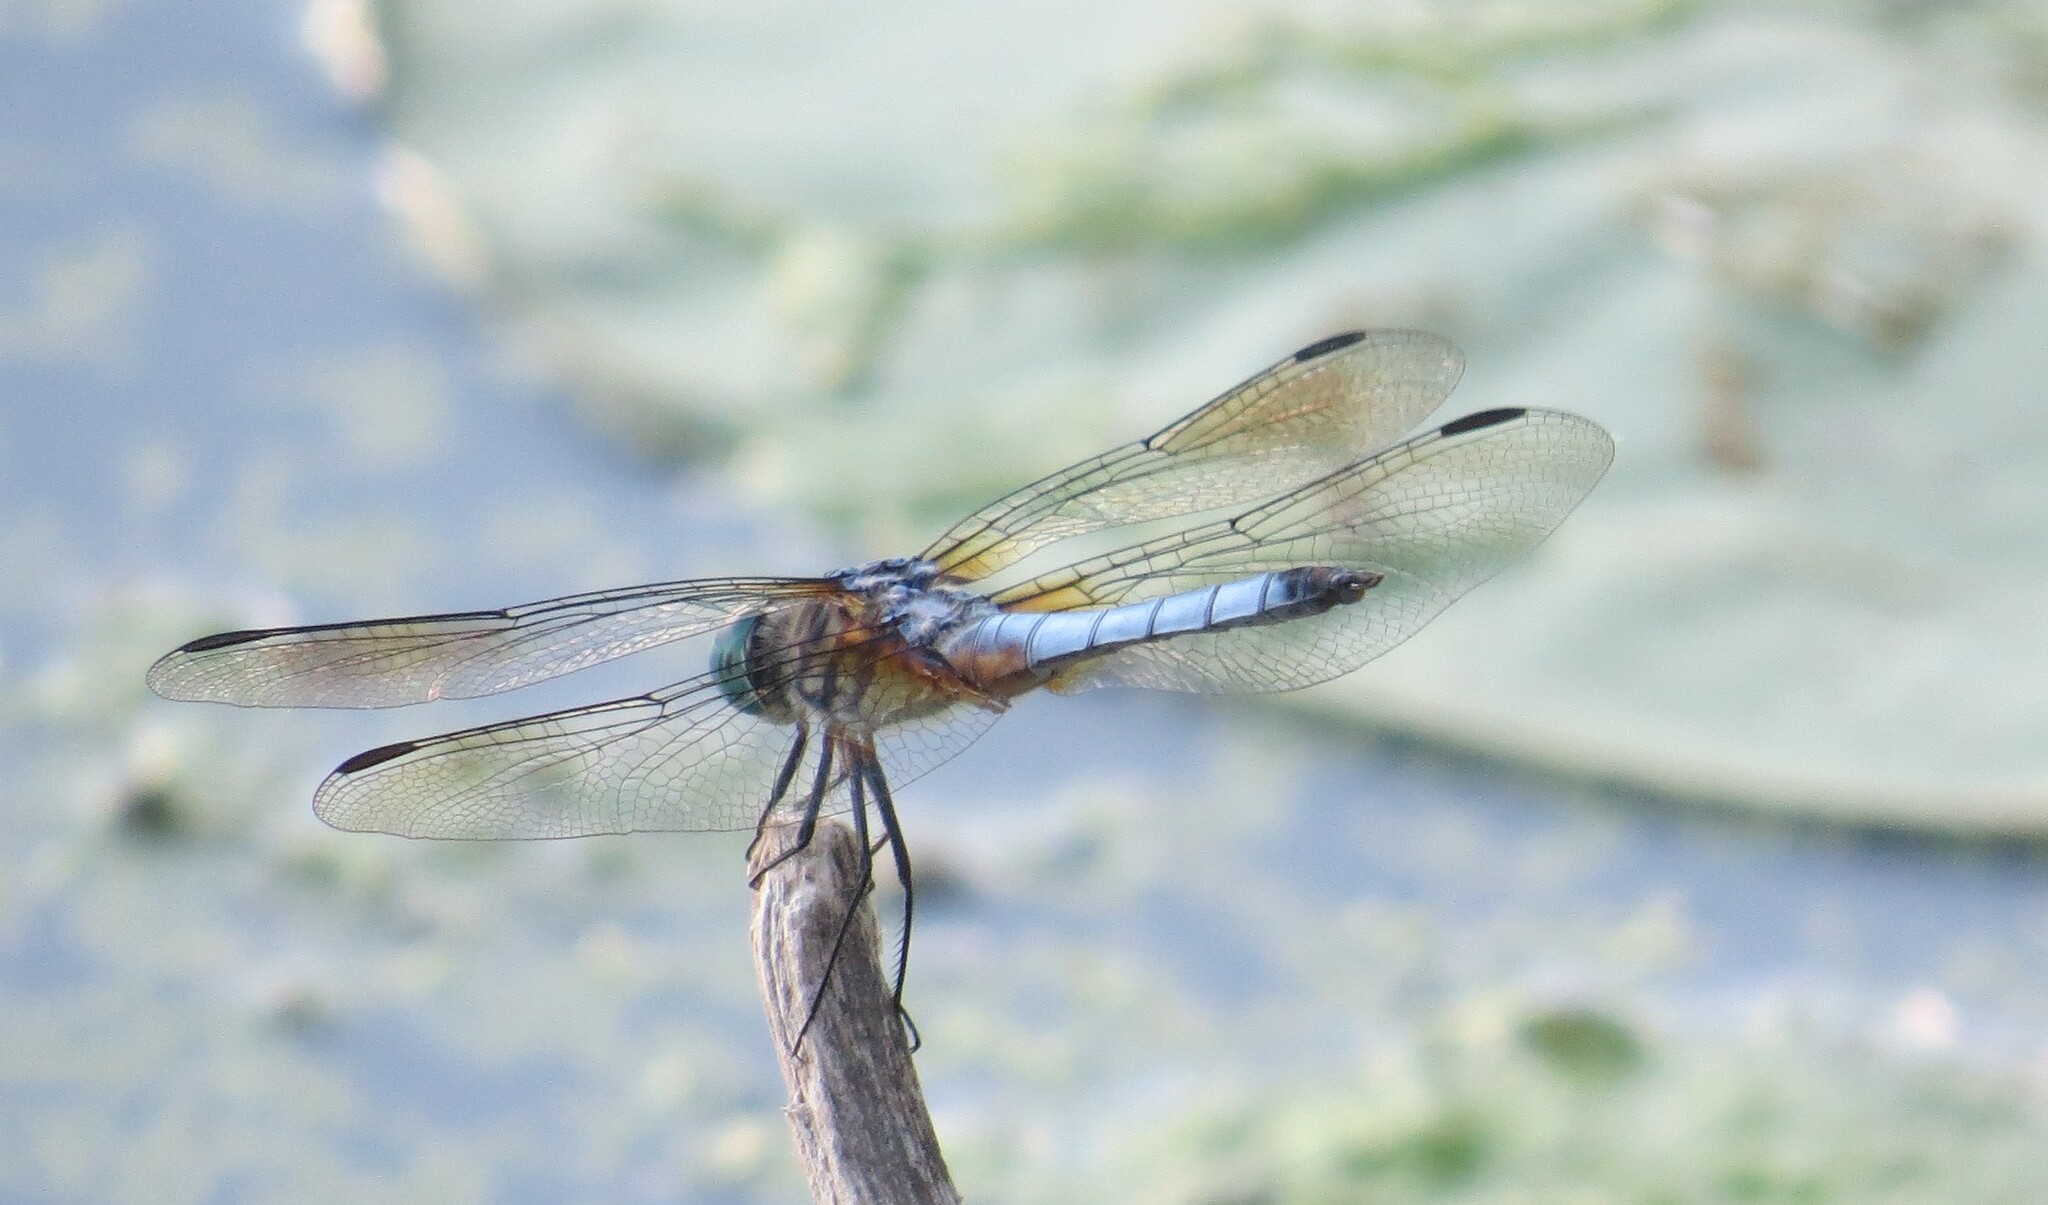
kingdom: Animalia
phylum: Arthropoda
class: Insecta
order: Odonata
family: Libellulidae
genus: Pachydiplax
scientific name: Pachydiplax longipennis
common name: Blue dasher
